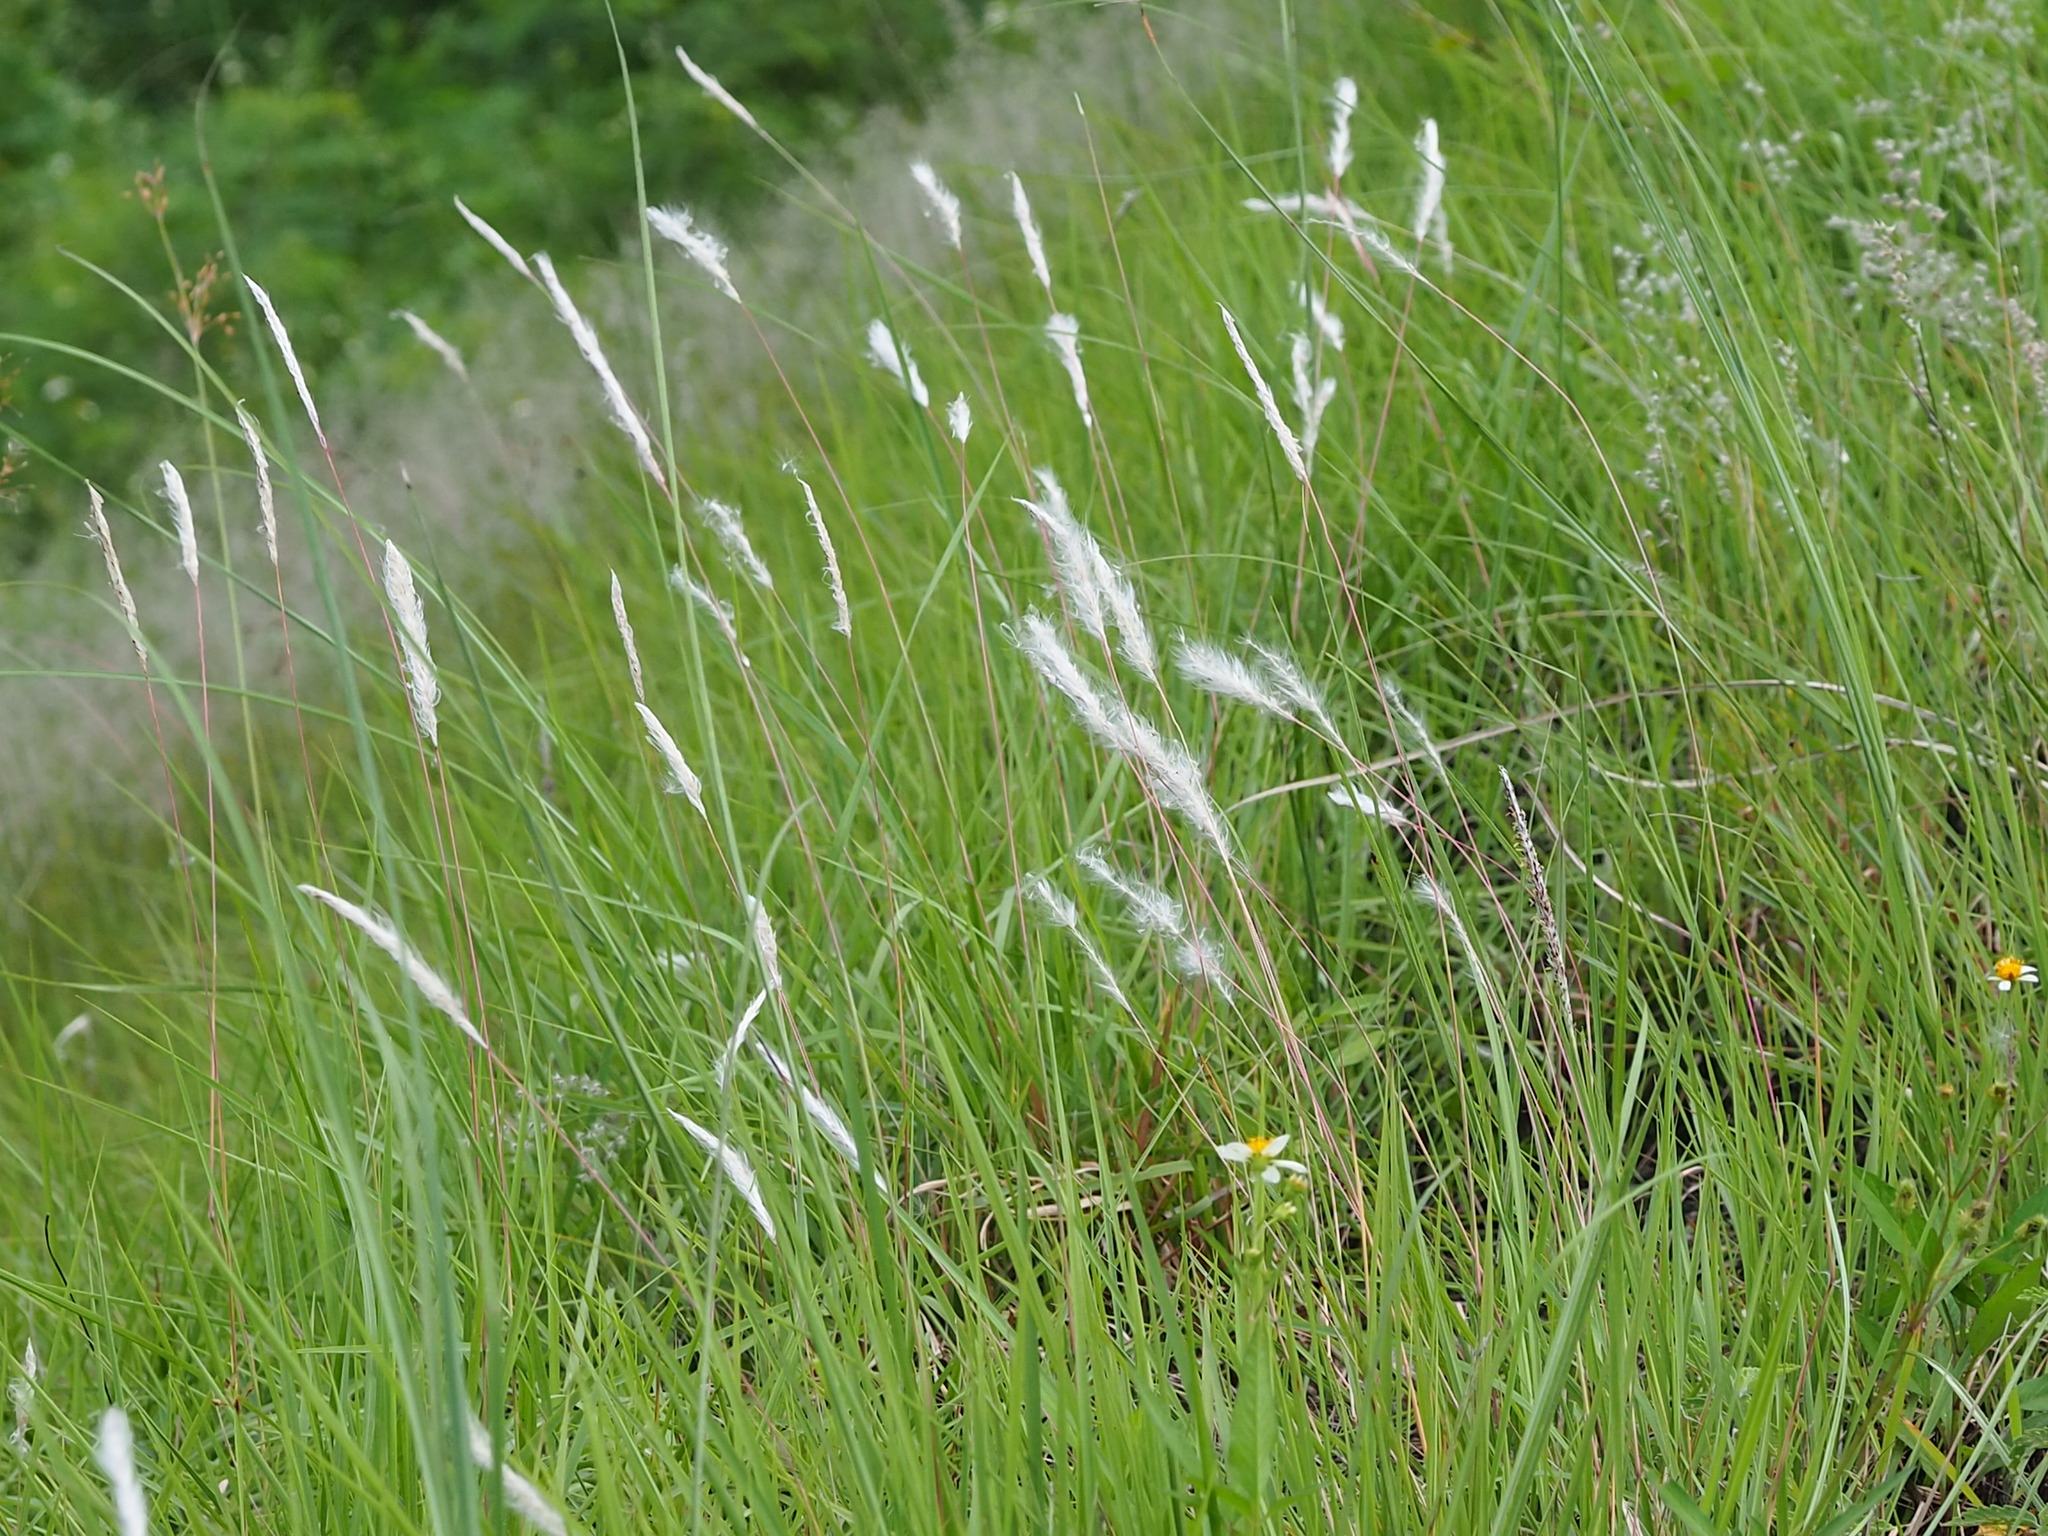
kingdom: Plantae
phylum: Tracheophyta
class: Liliopsida
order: Poales
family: Poaceae
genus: Imperata
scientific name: Imperata cylindrica
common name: Cogongrass
